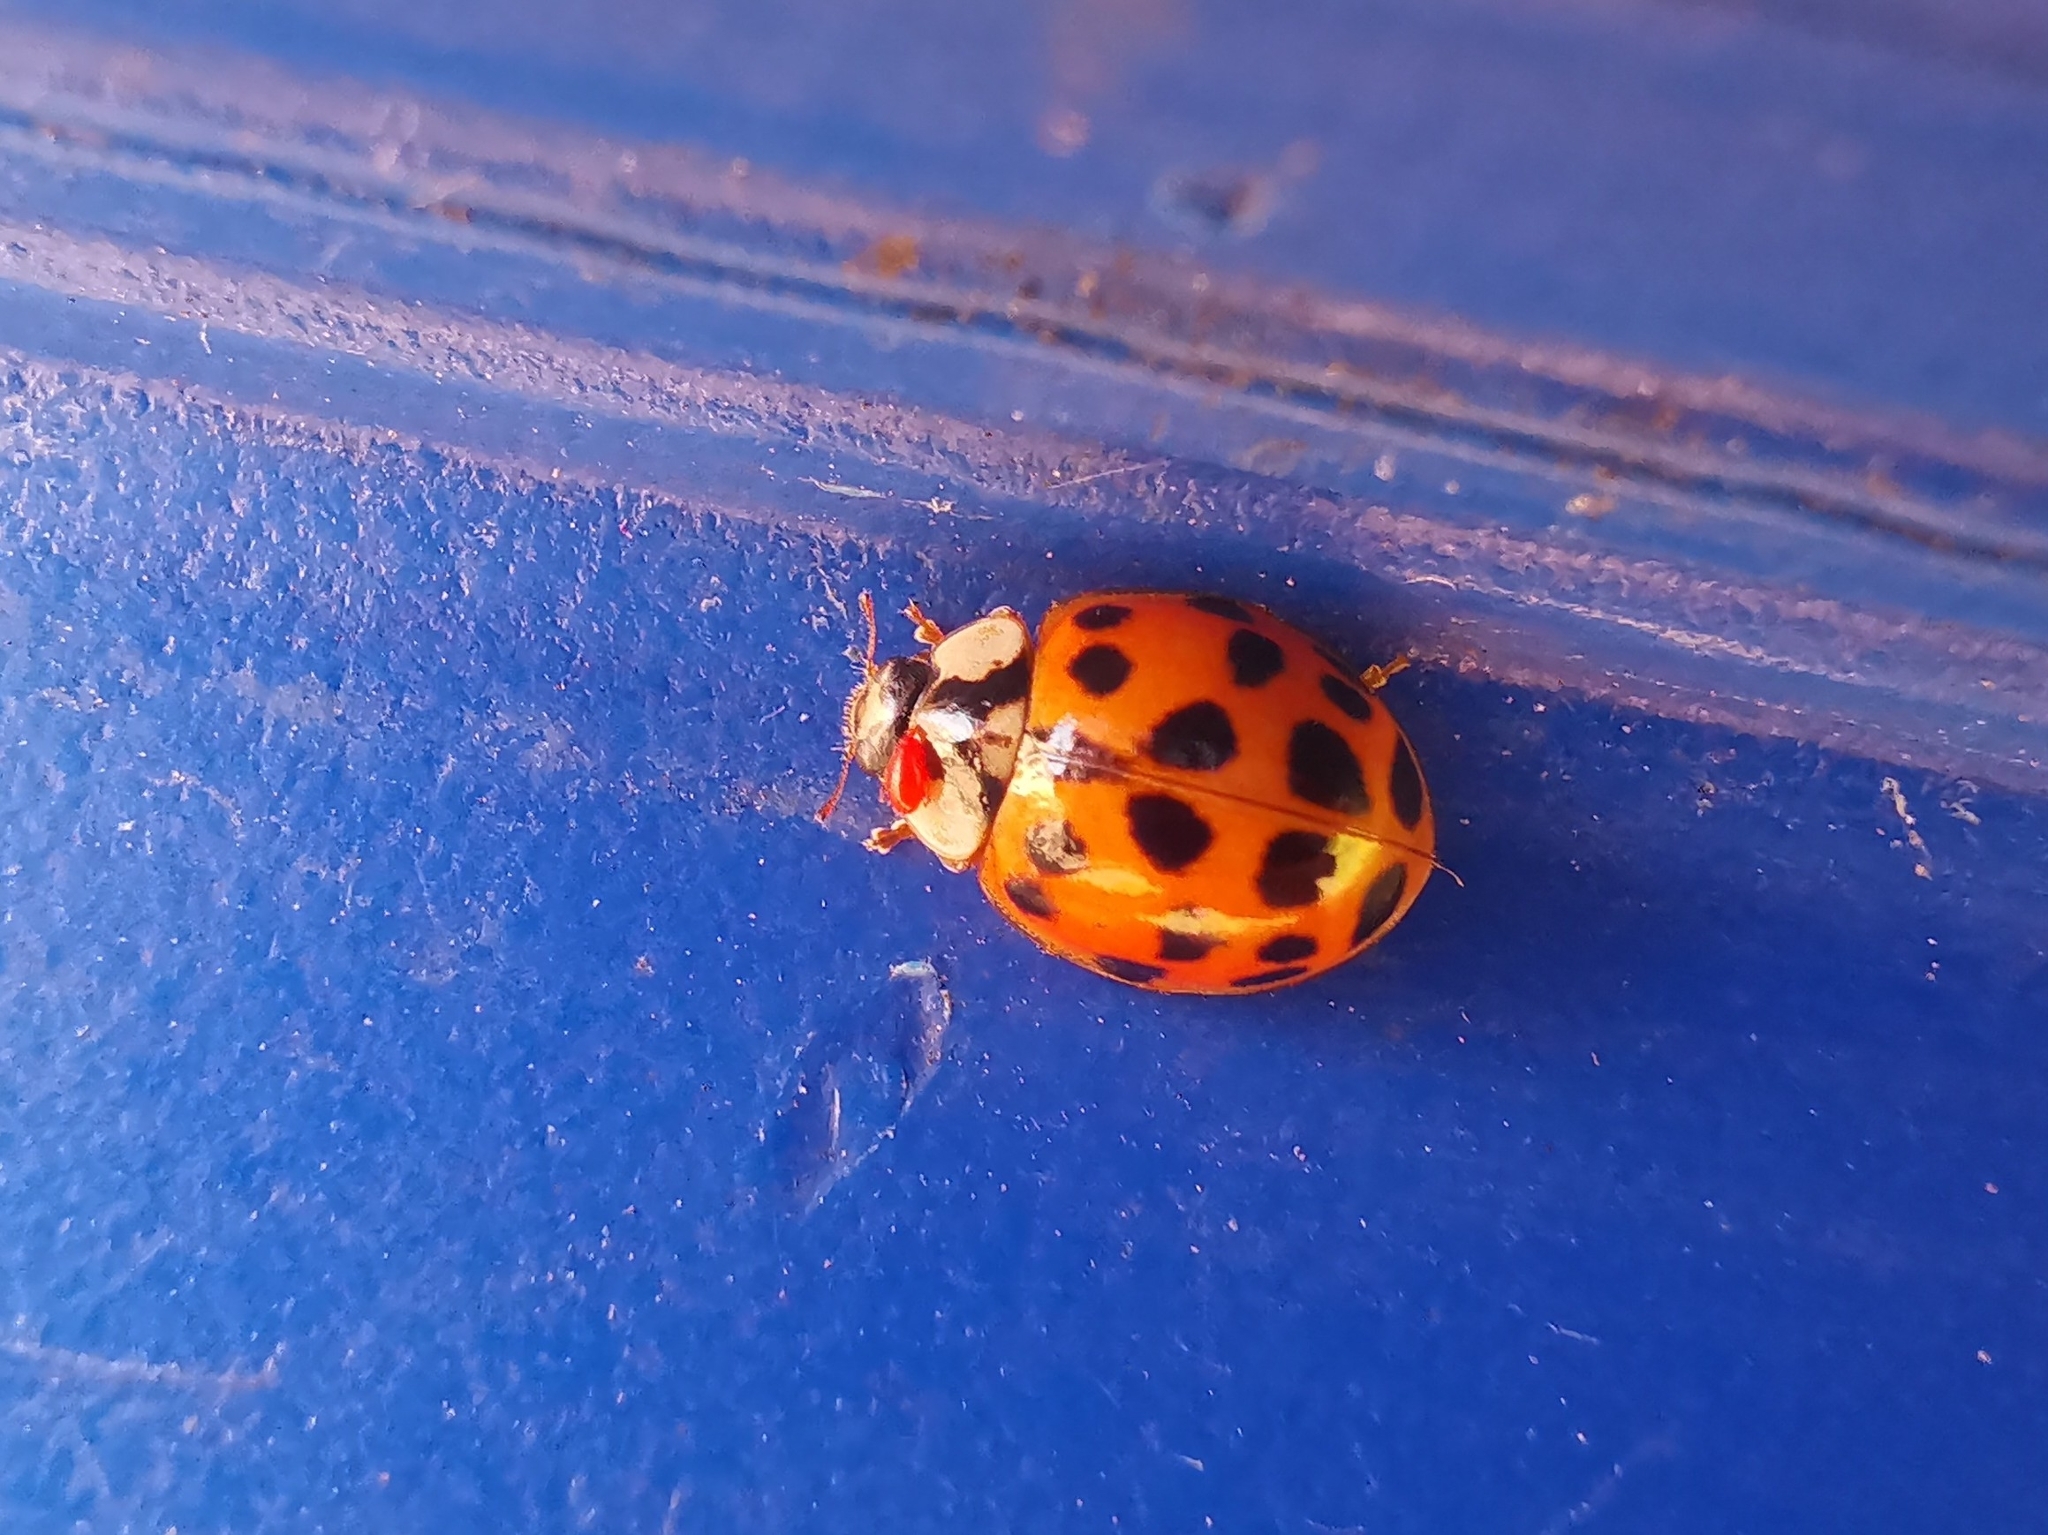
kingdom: Animalia
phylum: Arthropoda
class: Insecta
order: Coleoptera
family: Coccinellidae
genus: Harmonia
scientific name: Harmonia axyridis
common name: Harlequin ladybird
